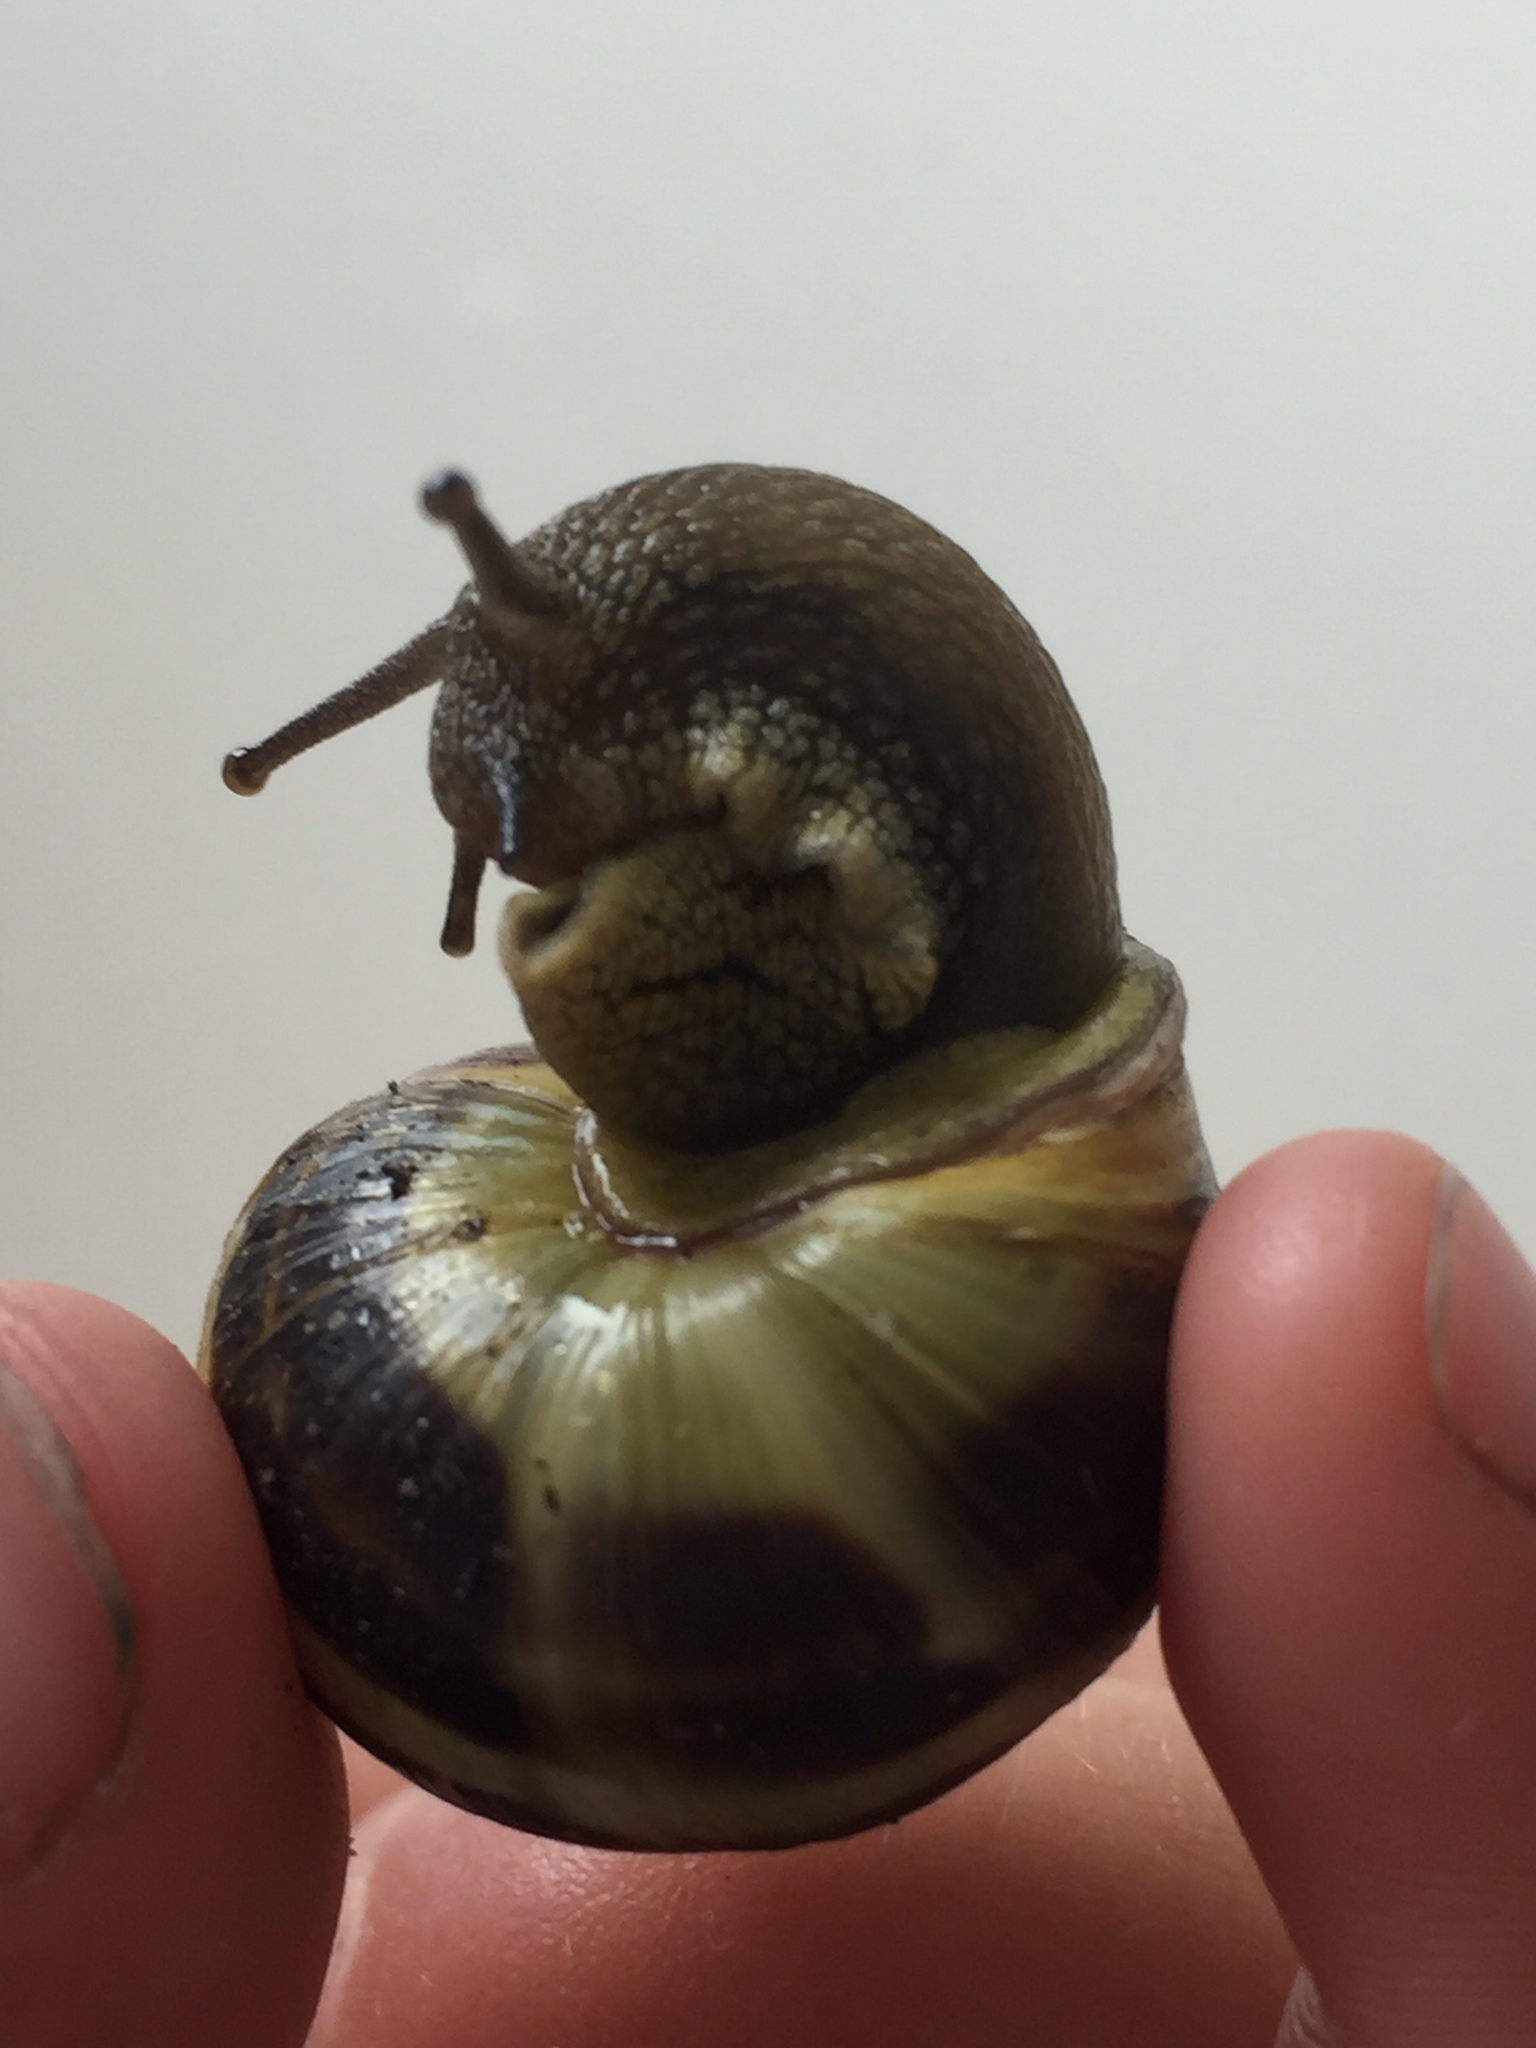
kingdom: Animalia
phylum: Mollusca
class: Gastropoda
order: Stylommatophora
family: Helicidae
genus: Cepaea
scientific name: Cepaea nemoralis
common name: Grovesnail
